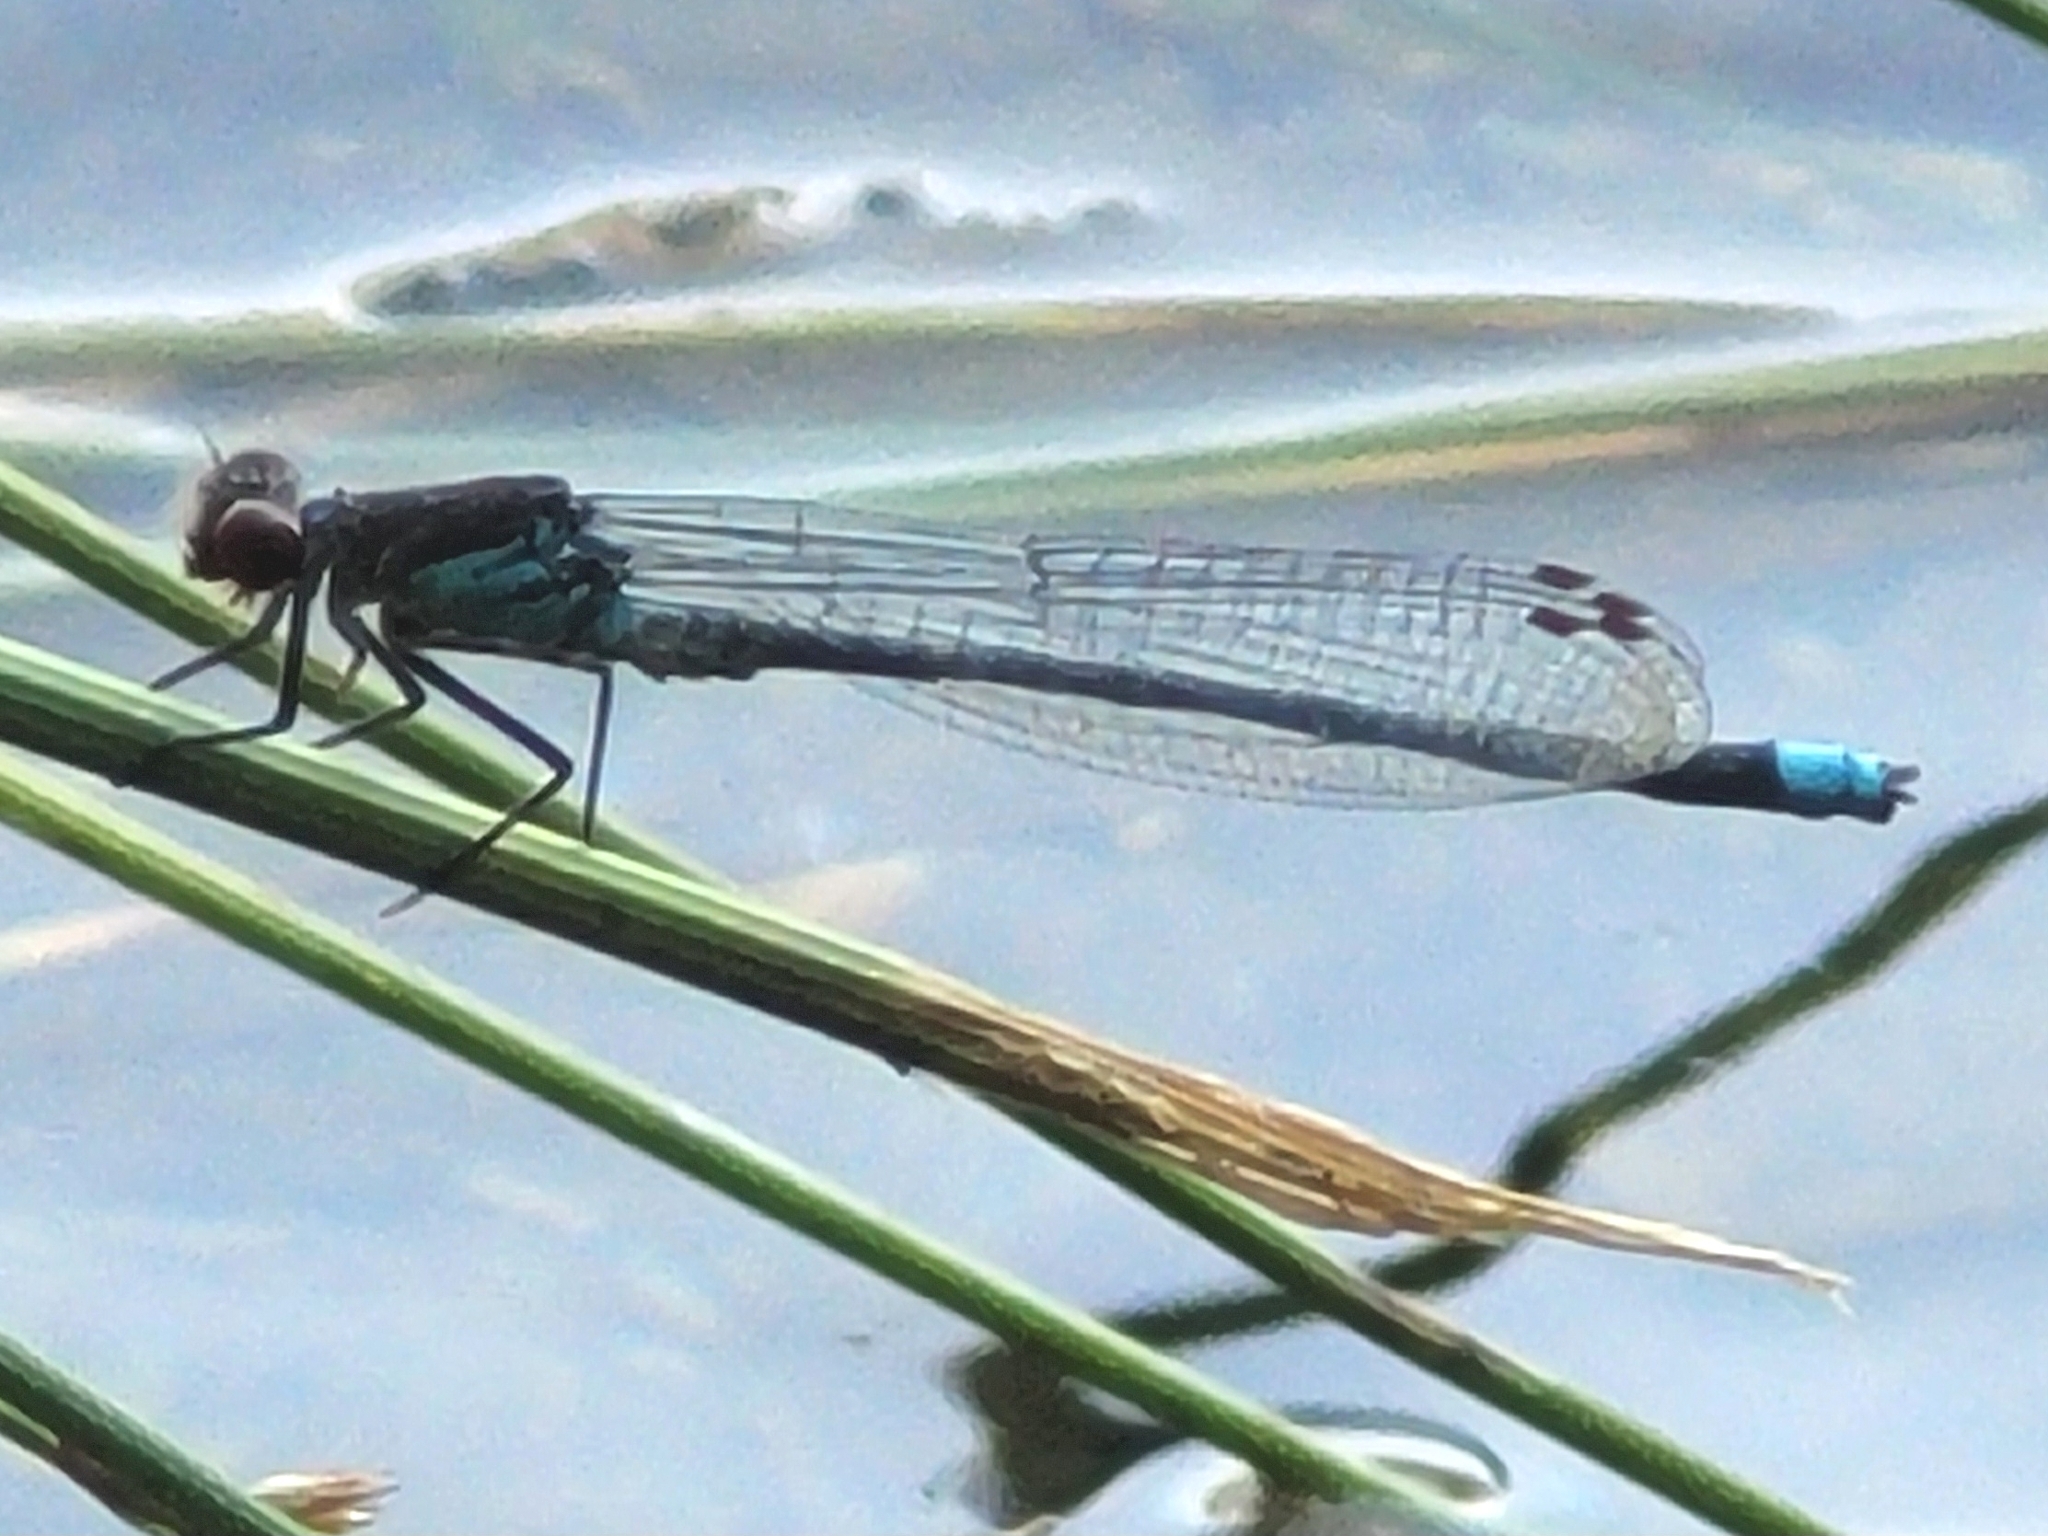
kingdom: Animalia
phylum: Arthropoda
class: Insecta
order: Odonata
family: Coenagrionidae
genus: Erythromma
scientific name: Erythromma najas
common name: Red-eyed damselfly
